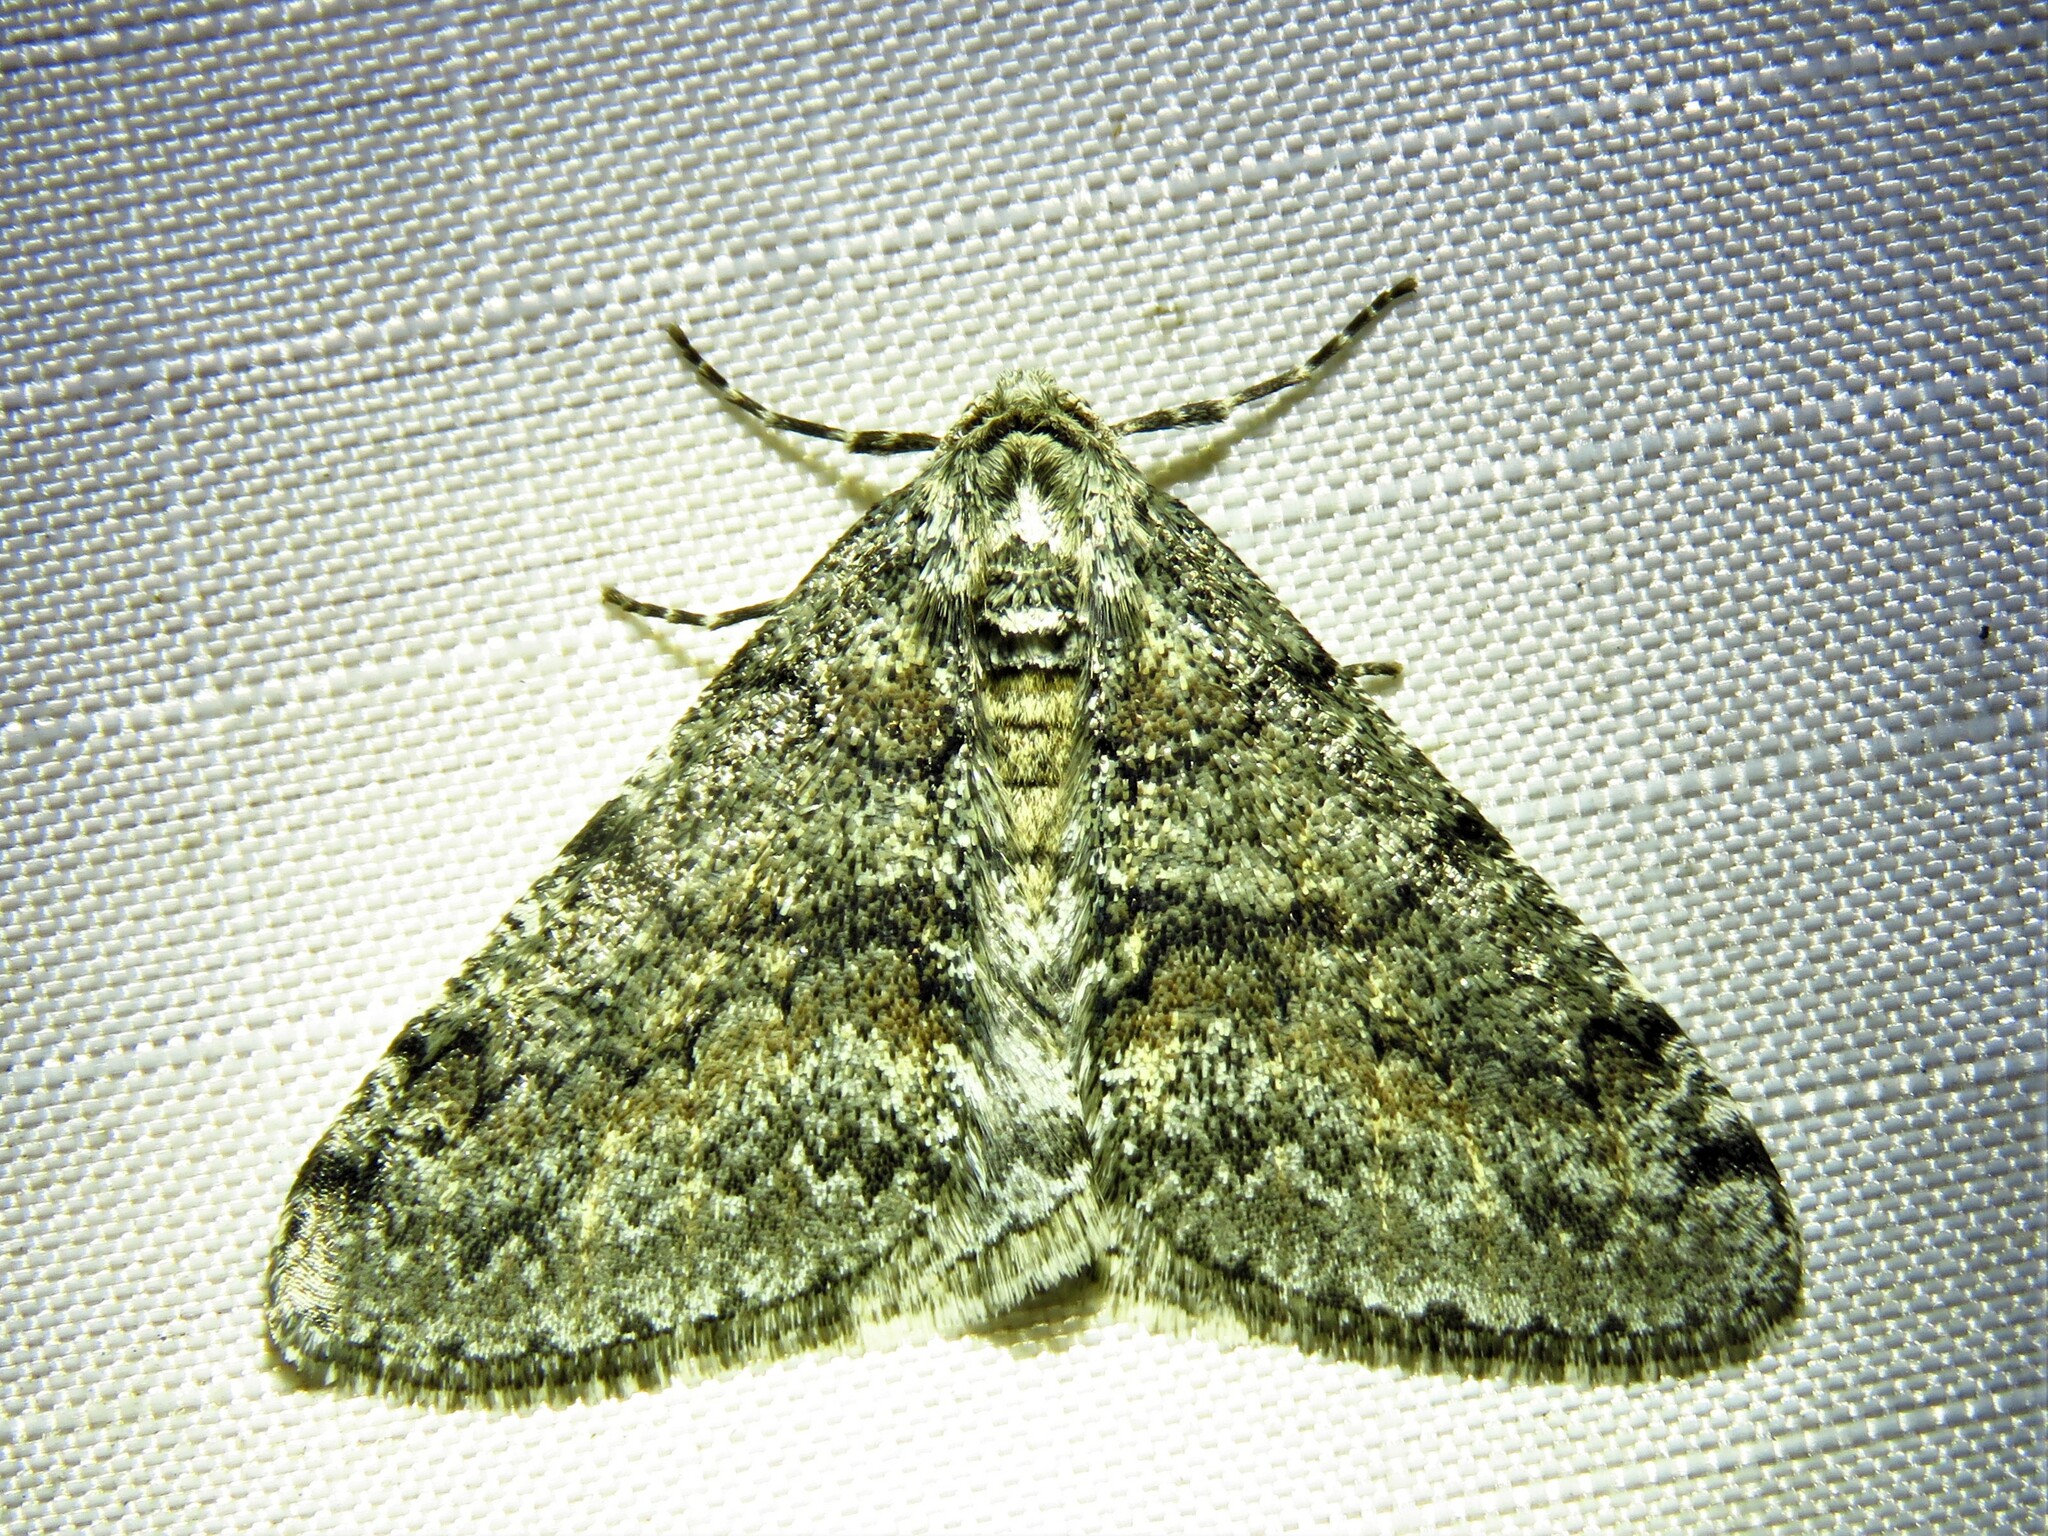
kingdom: Animalia
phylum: Arthropoda
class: Insecta
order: Lepidoptera
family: Geometridae
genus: Phigalia
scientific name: Phigalia denticulata
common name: Toothed phigalia
